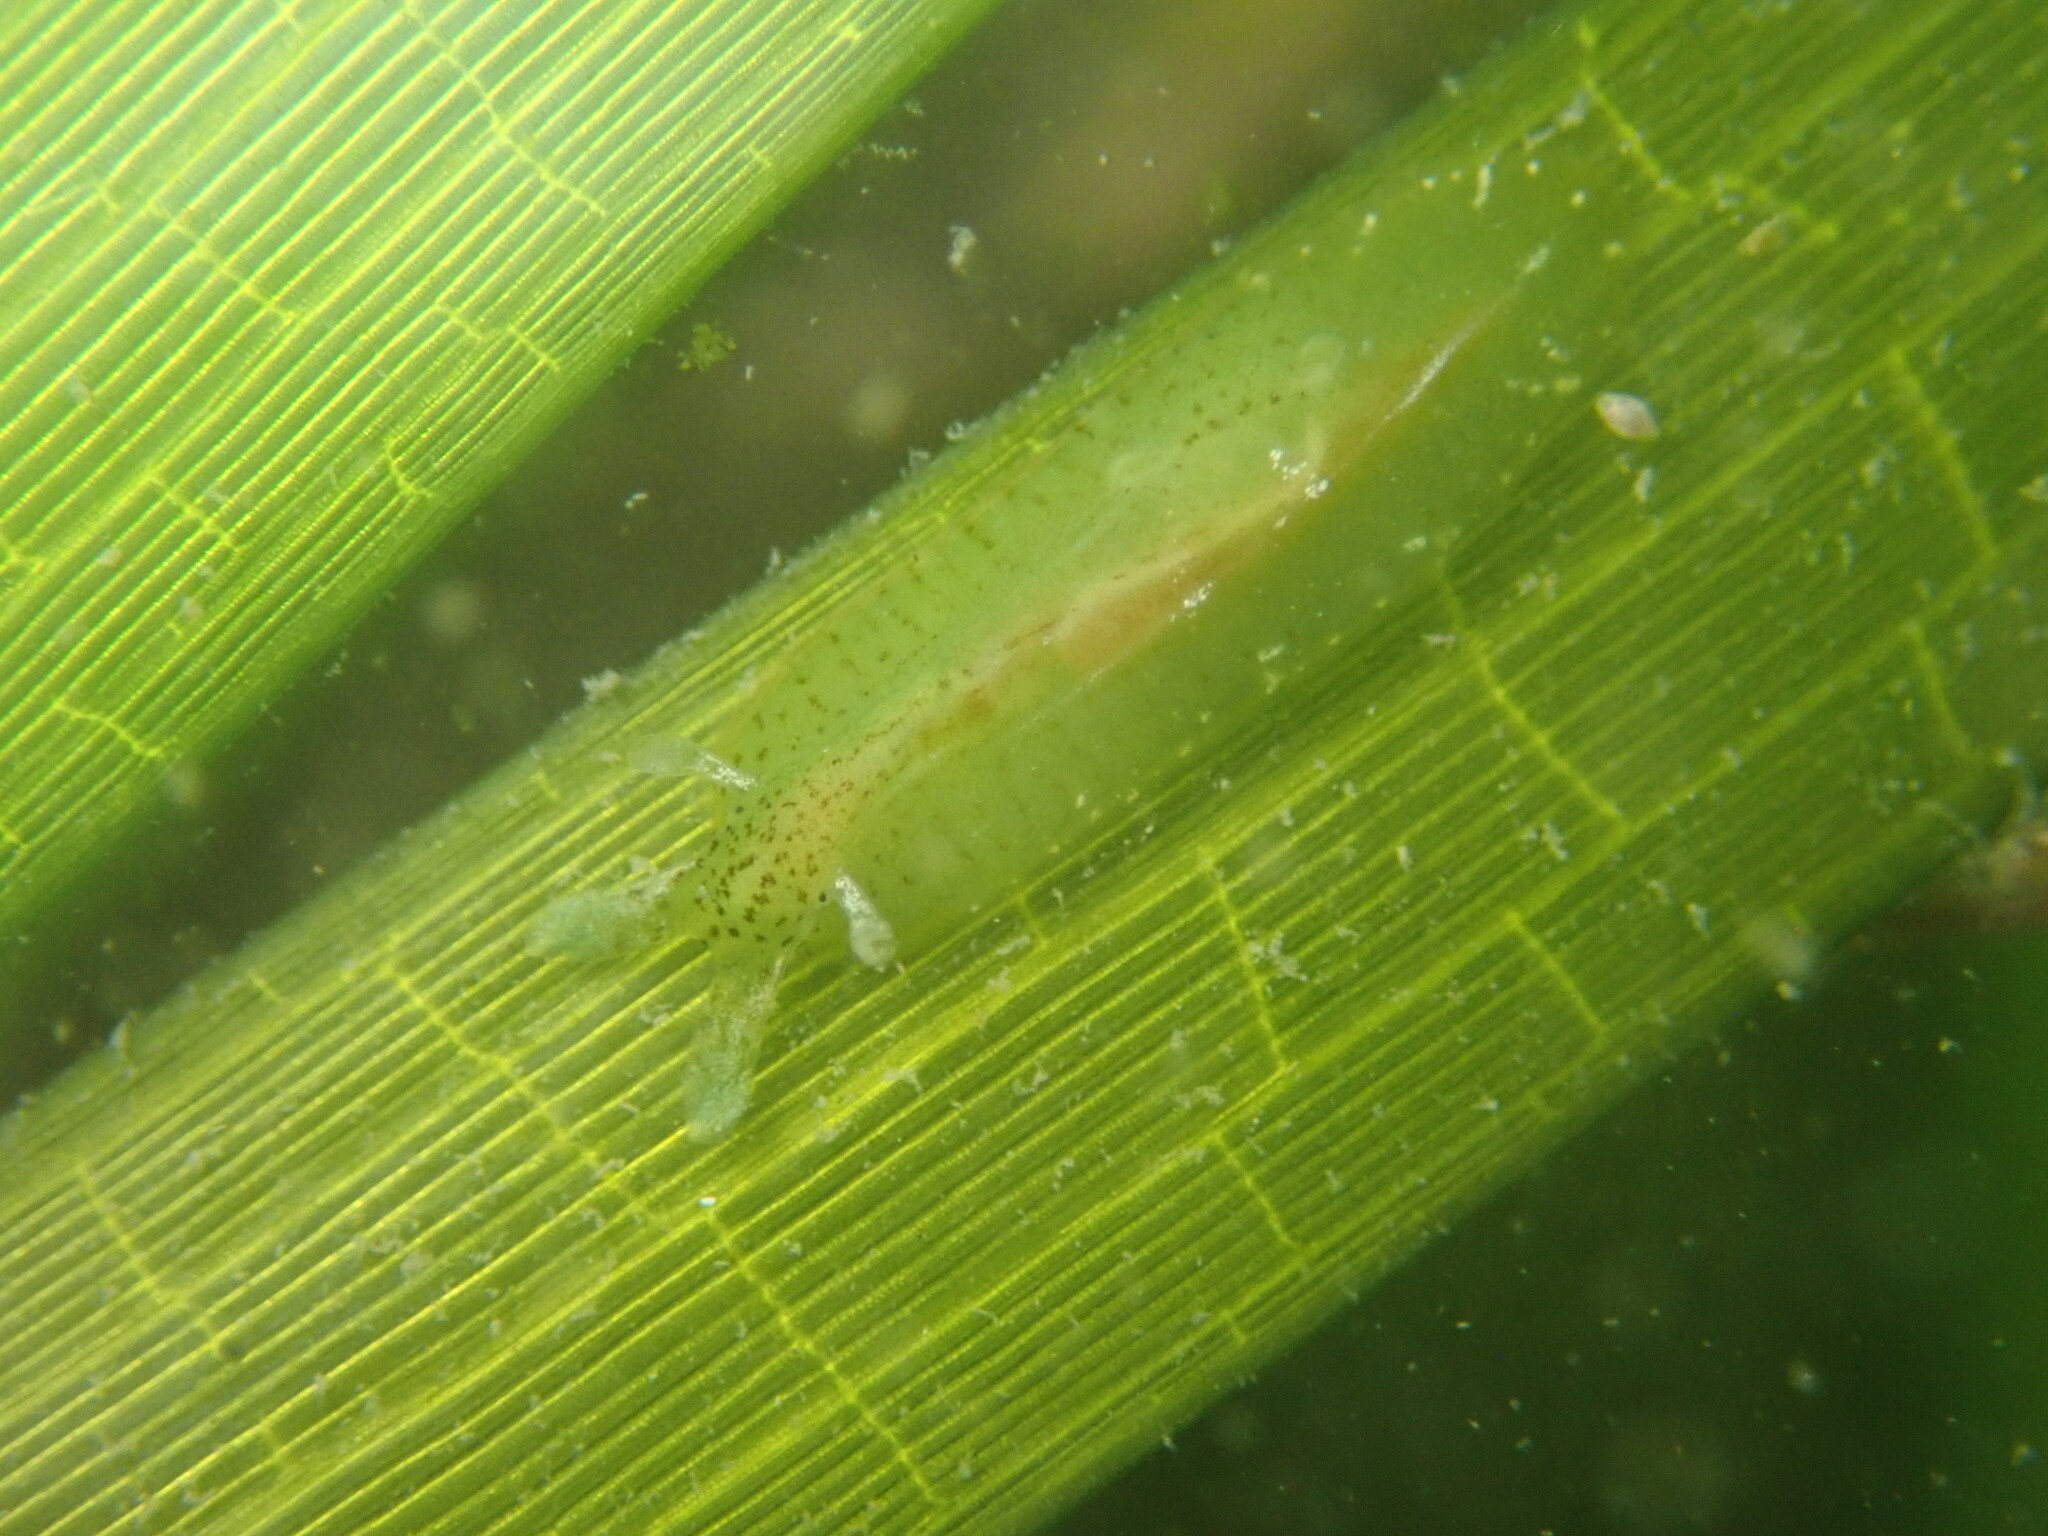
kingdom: Animalia
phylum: Mollusca
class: Gastropoda
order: Aplysiida
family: Aplysiidae
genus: Phyllaplysia
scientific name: Phyllaplysia taylori
